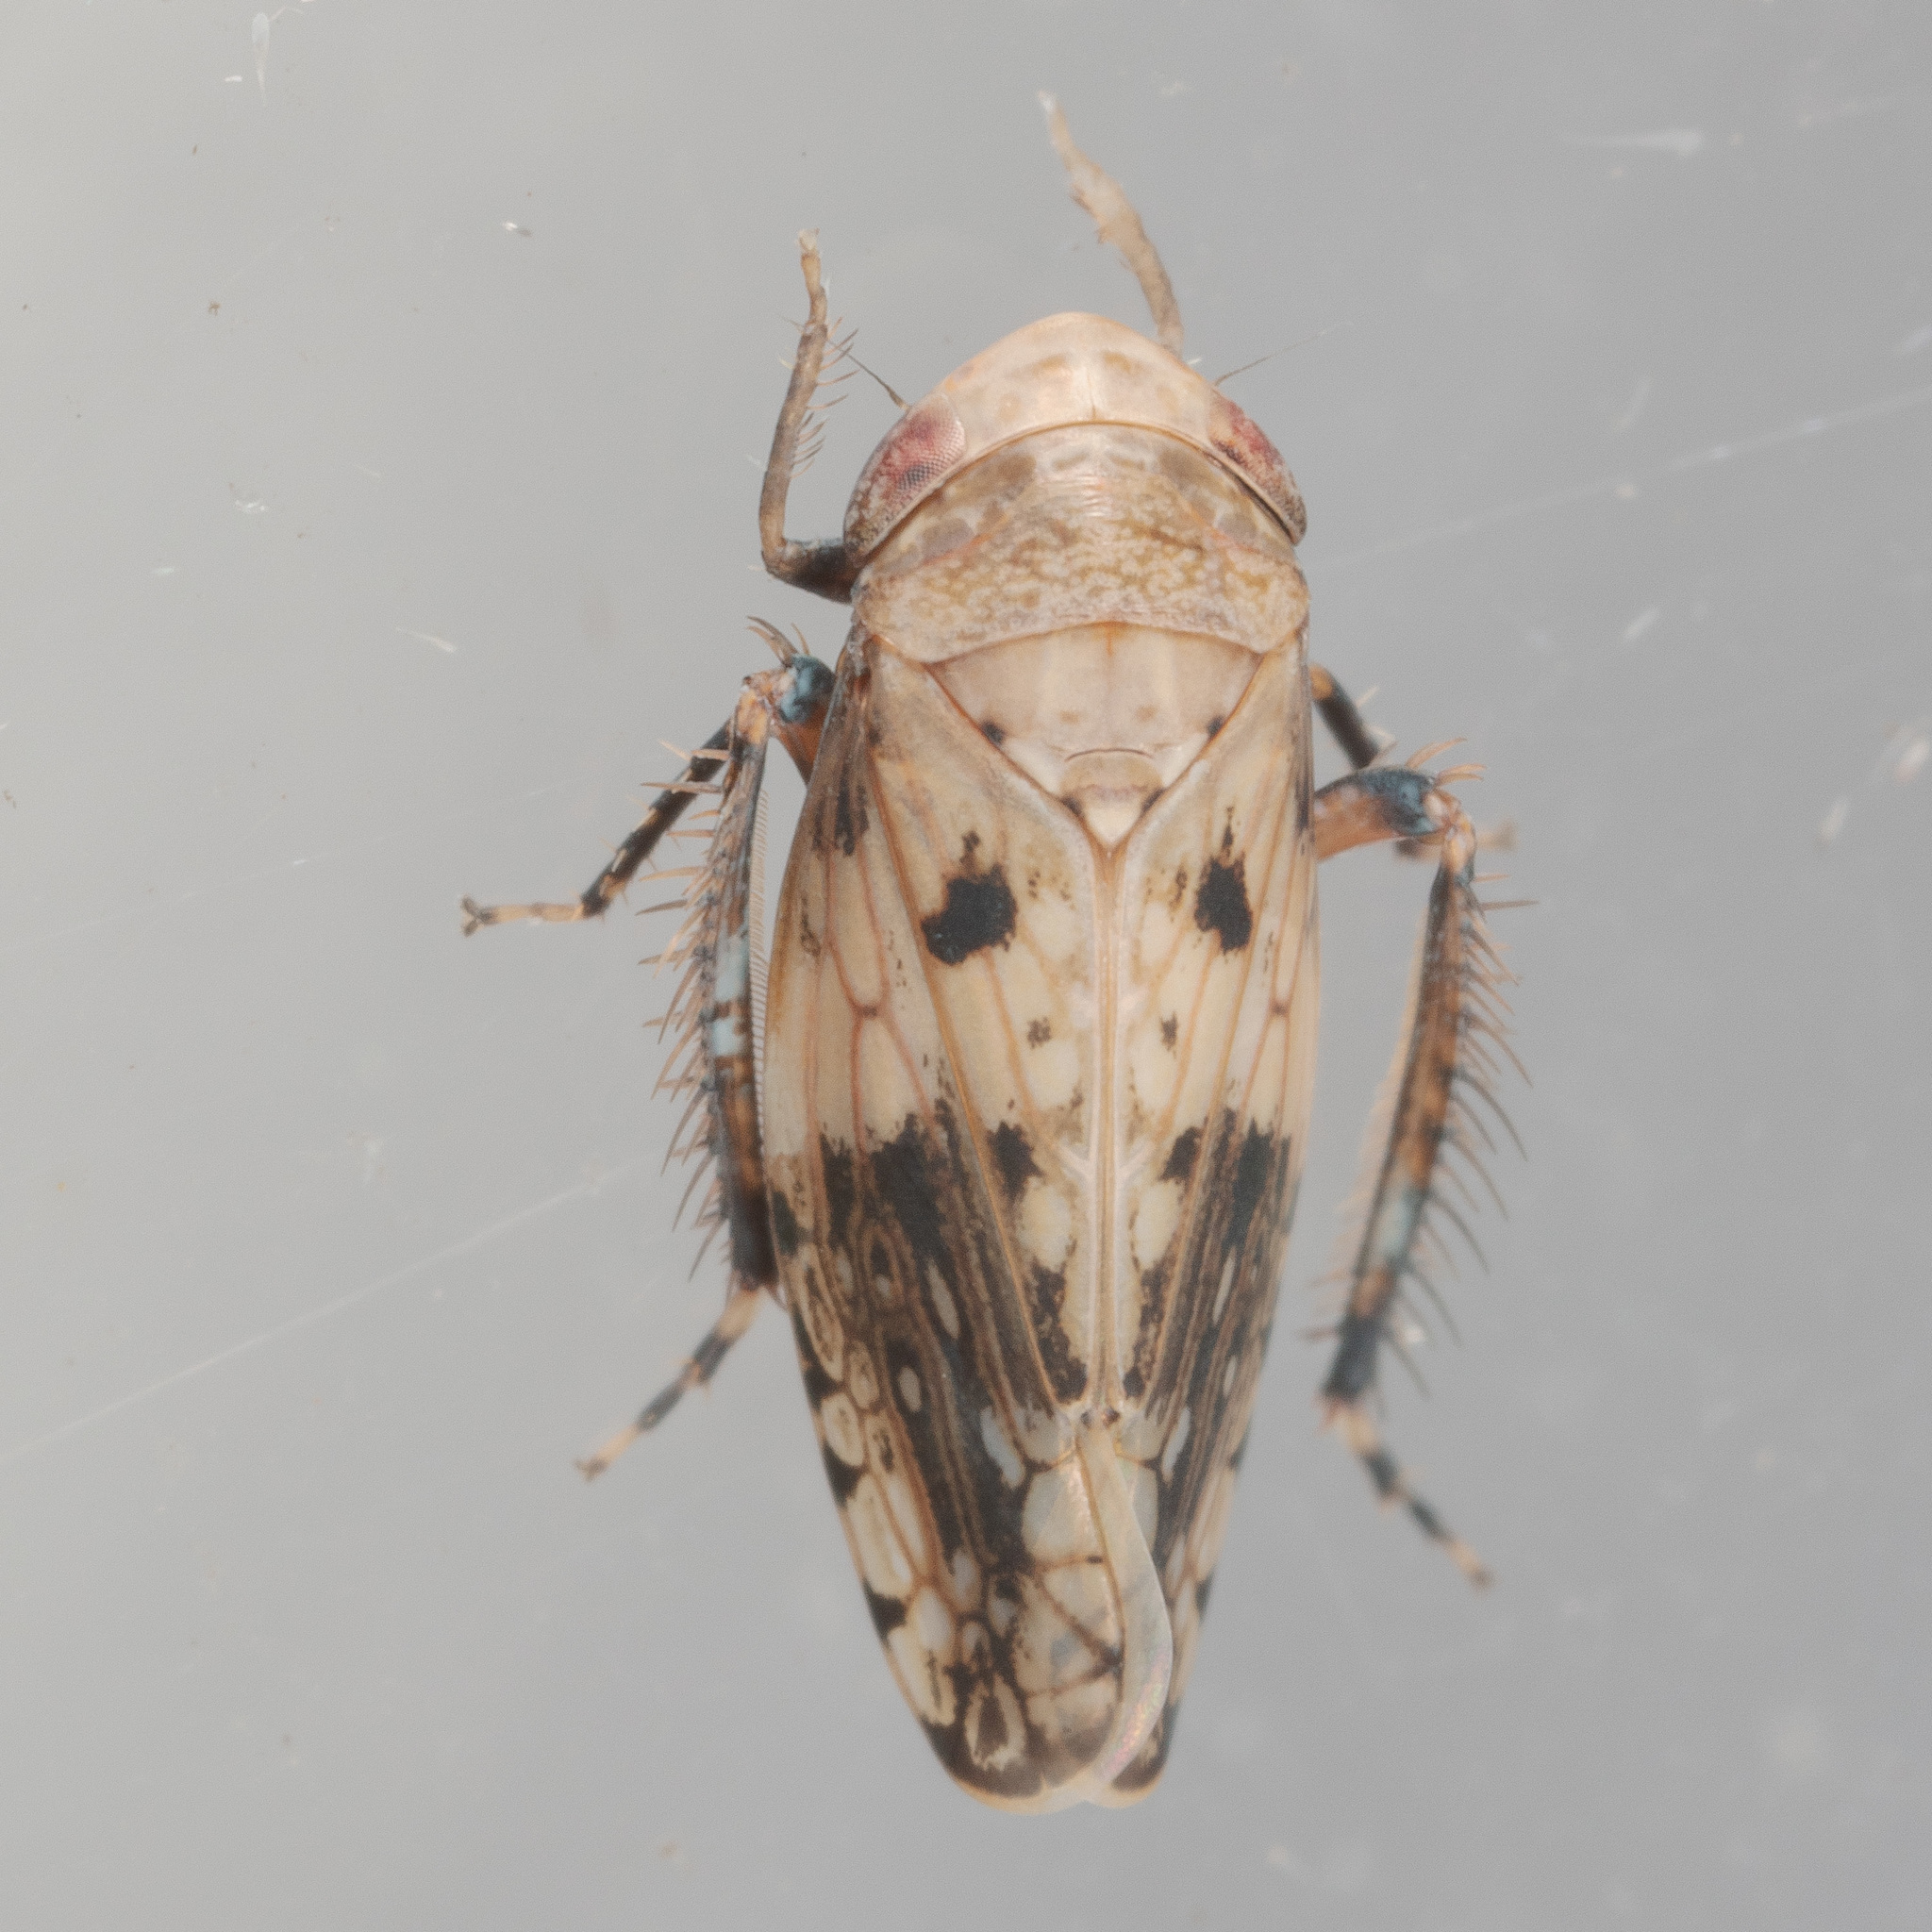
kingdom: Animalia
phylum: Arthropoda
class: Insecta
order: Hemiptera
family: Cicadellidae
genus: Menosoma
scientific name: Menosoma cinctum
